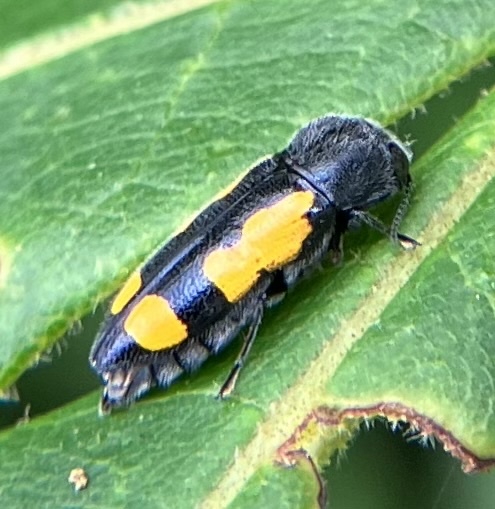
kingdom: Animalia
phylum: Arthropoda
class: Insecta
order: Coleoptera
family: Buprestidae
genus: Ptosima
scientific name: Ptosima gibbicollis
